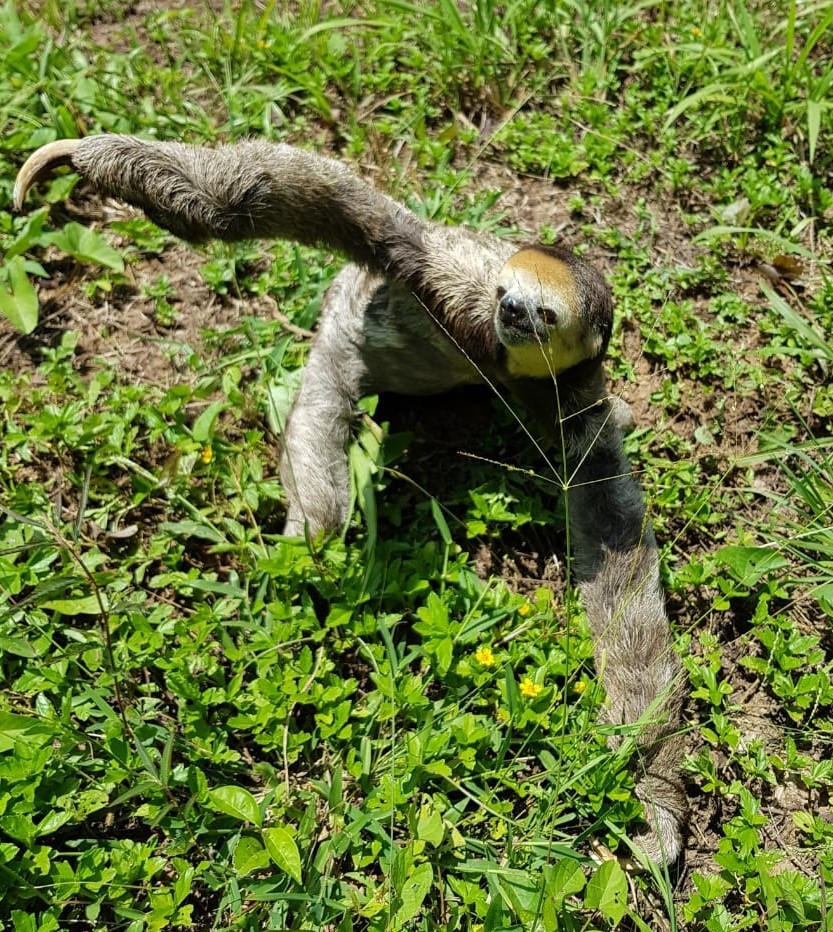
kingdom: Animalia
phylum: Chordata
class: Mammalia
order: Pilosa
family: Bradypodidae
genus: Bradypus
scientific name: Bradypus tridactylus
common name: Pale-throated three-toed sloth
